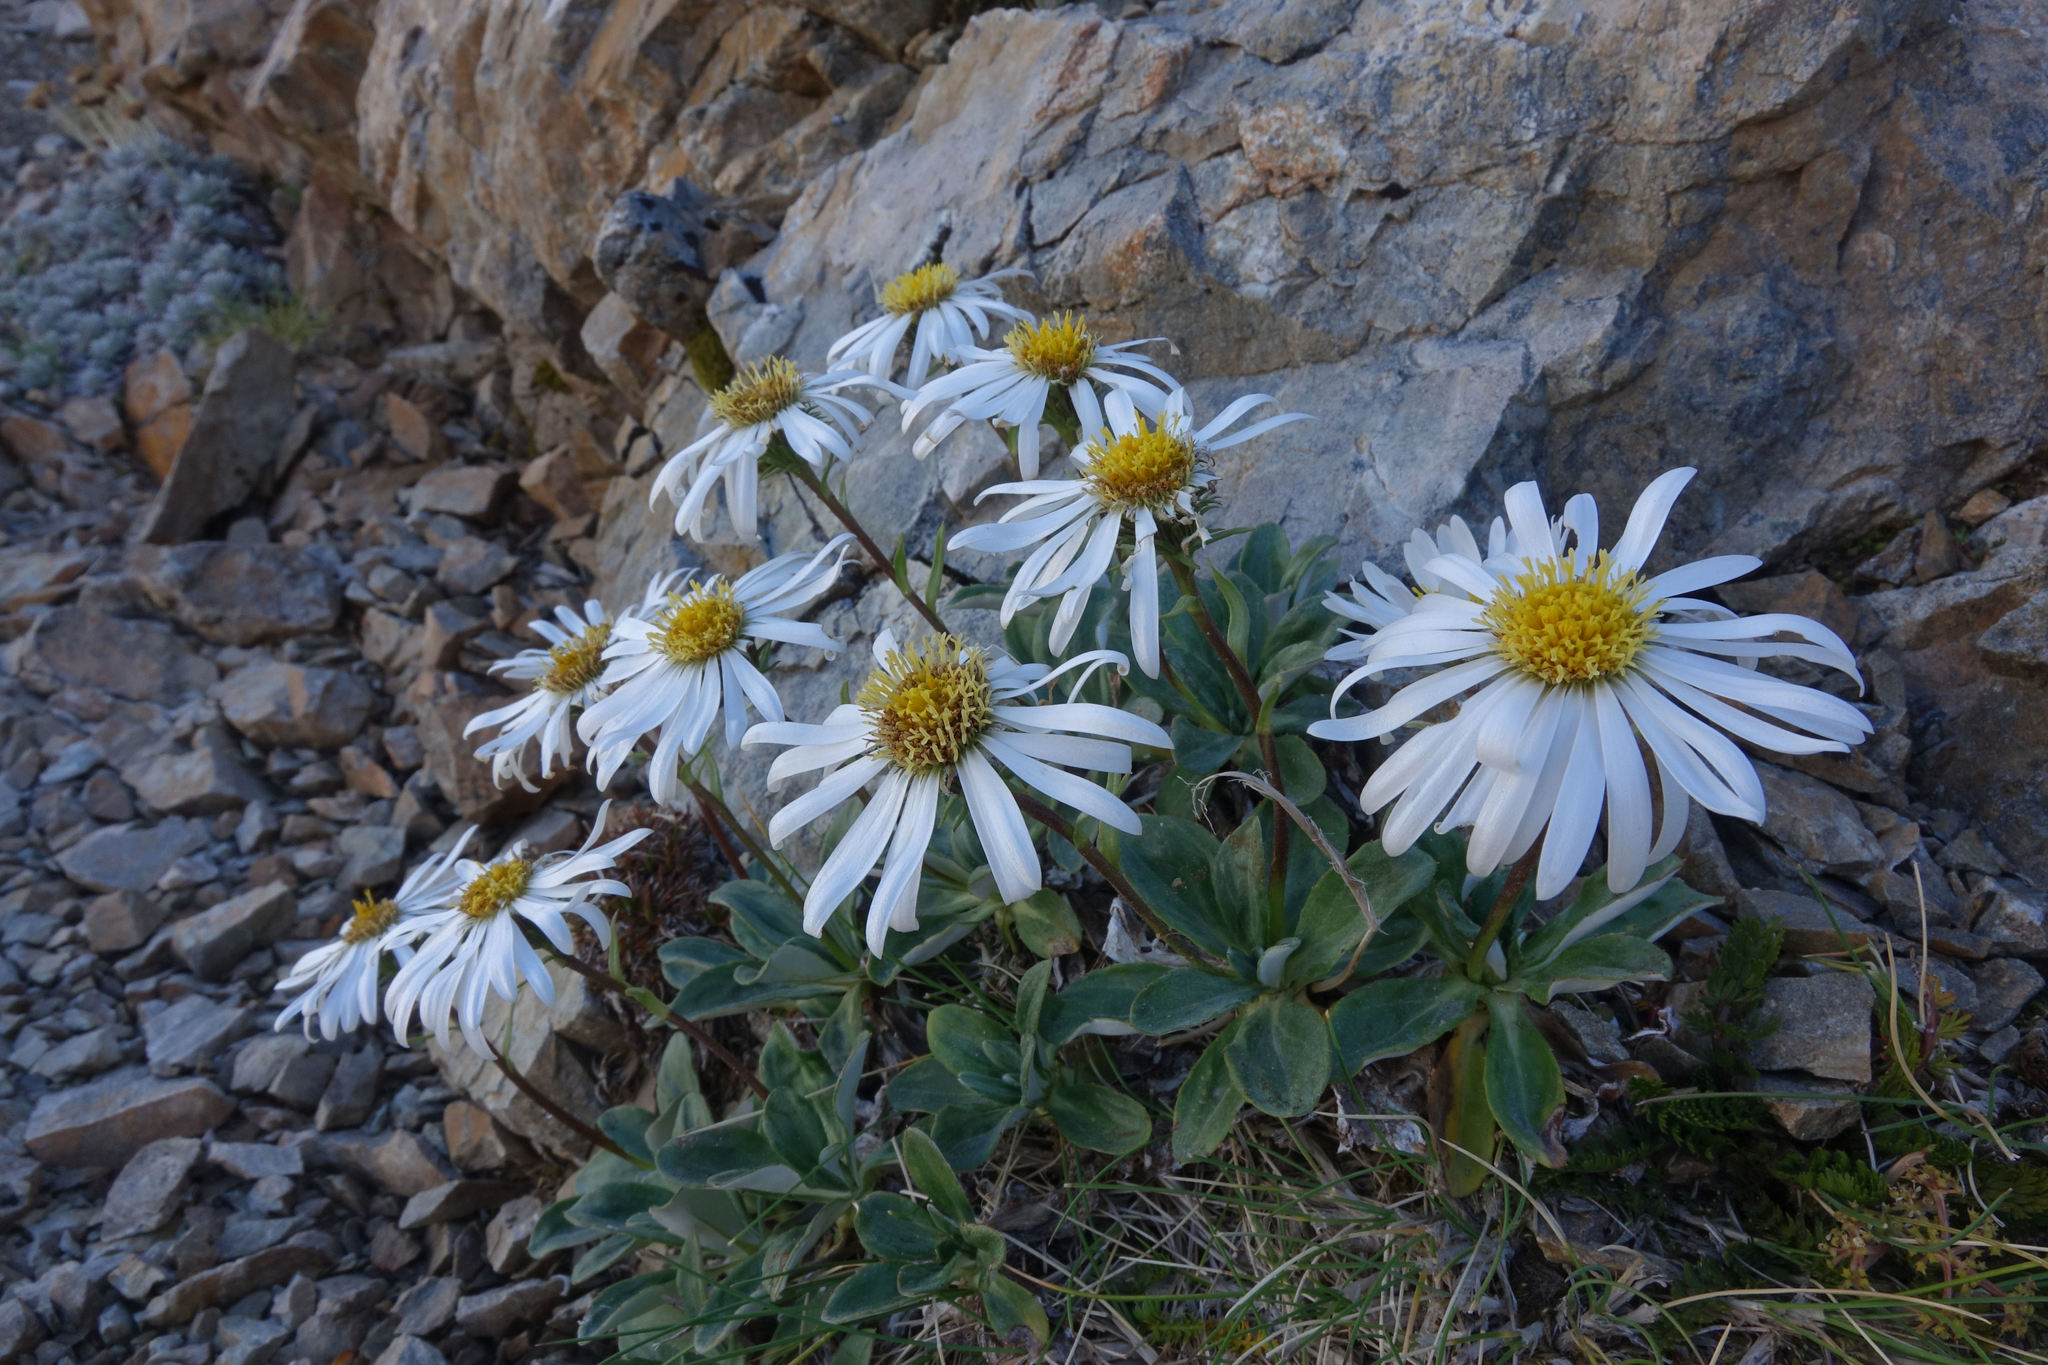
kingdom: Plantae
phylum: Tracheophyta
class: Magnoliopsida
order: Asterales
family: Asteraceae
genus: Celmisia
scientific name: Celmisia durietzii
